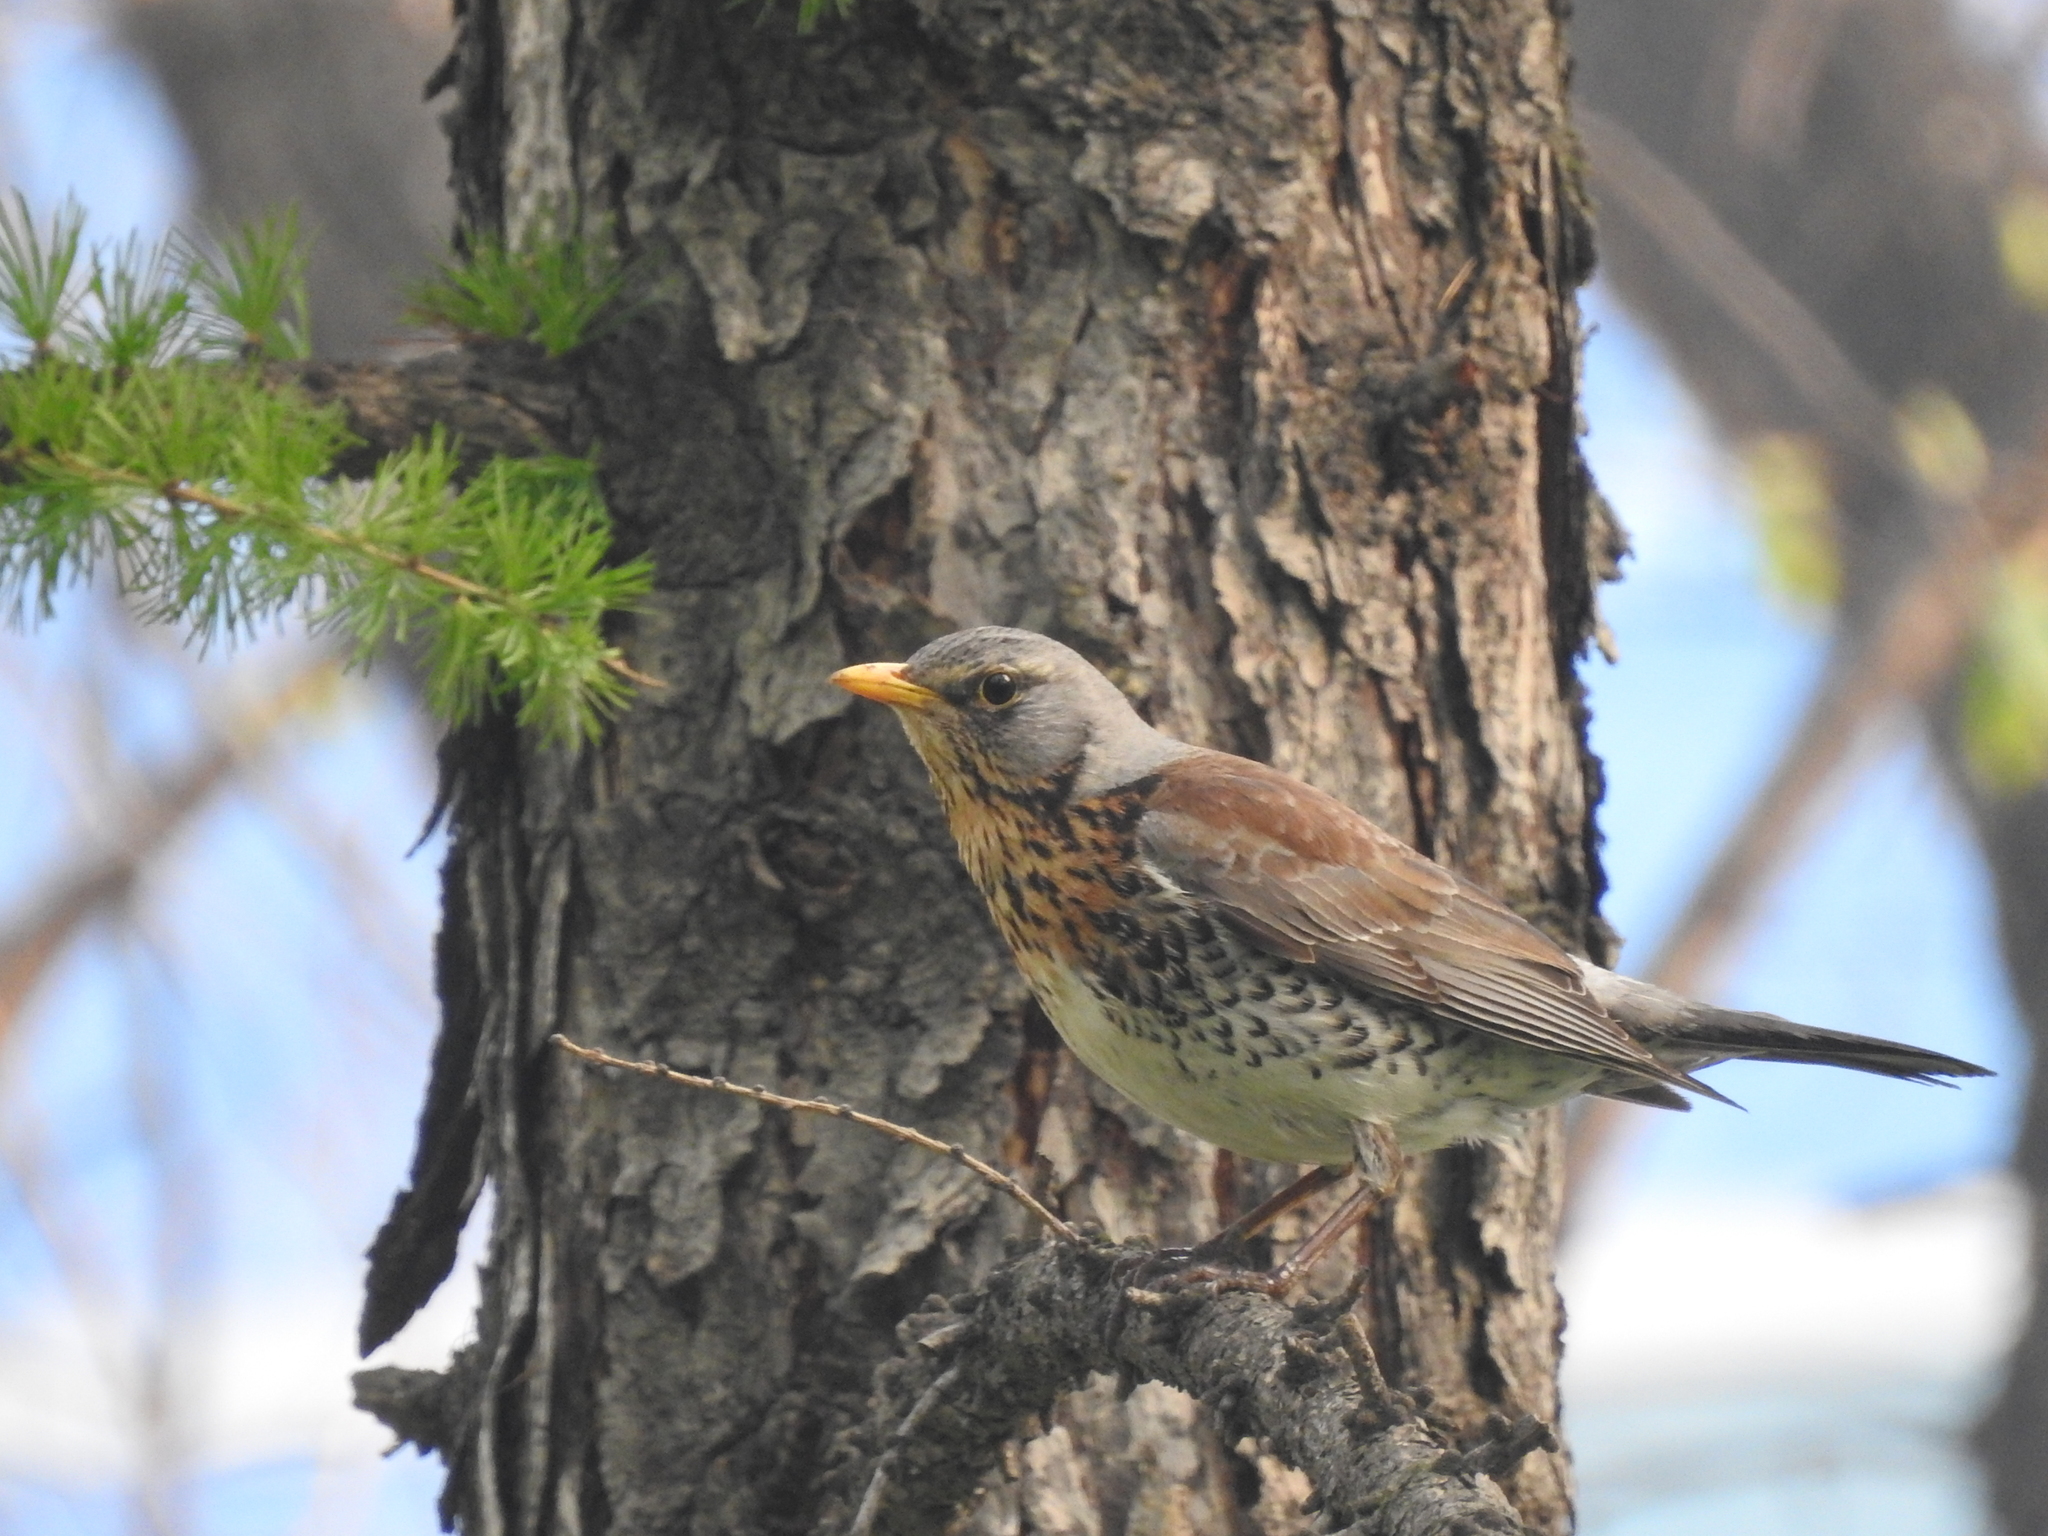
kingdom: Animalia
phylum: Chordata
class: Aves
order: Passeriformes
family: Turdidae
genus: Turdus
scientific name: Turdus pilaris
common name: Fieldfare
